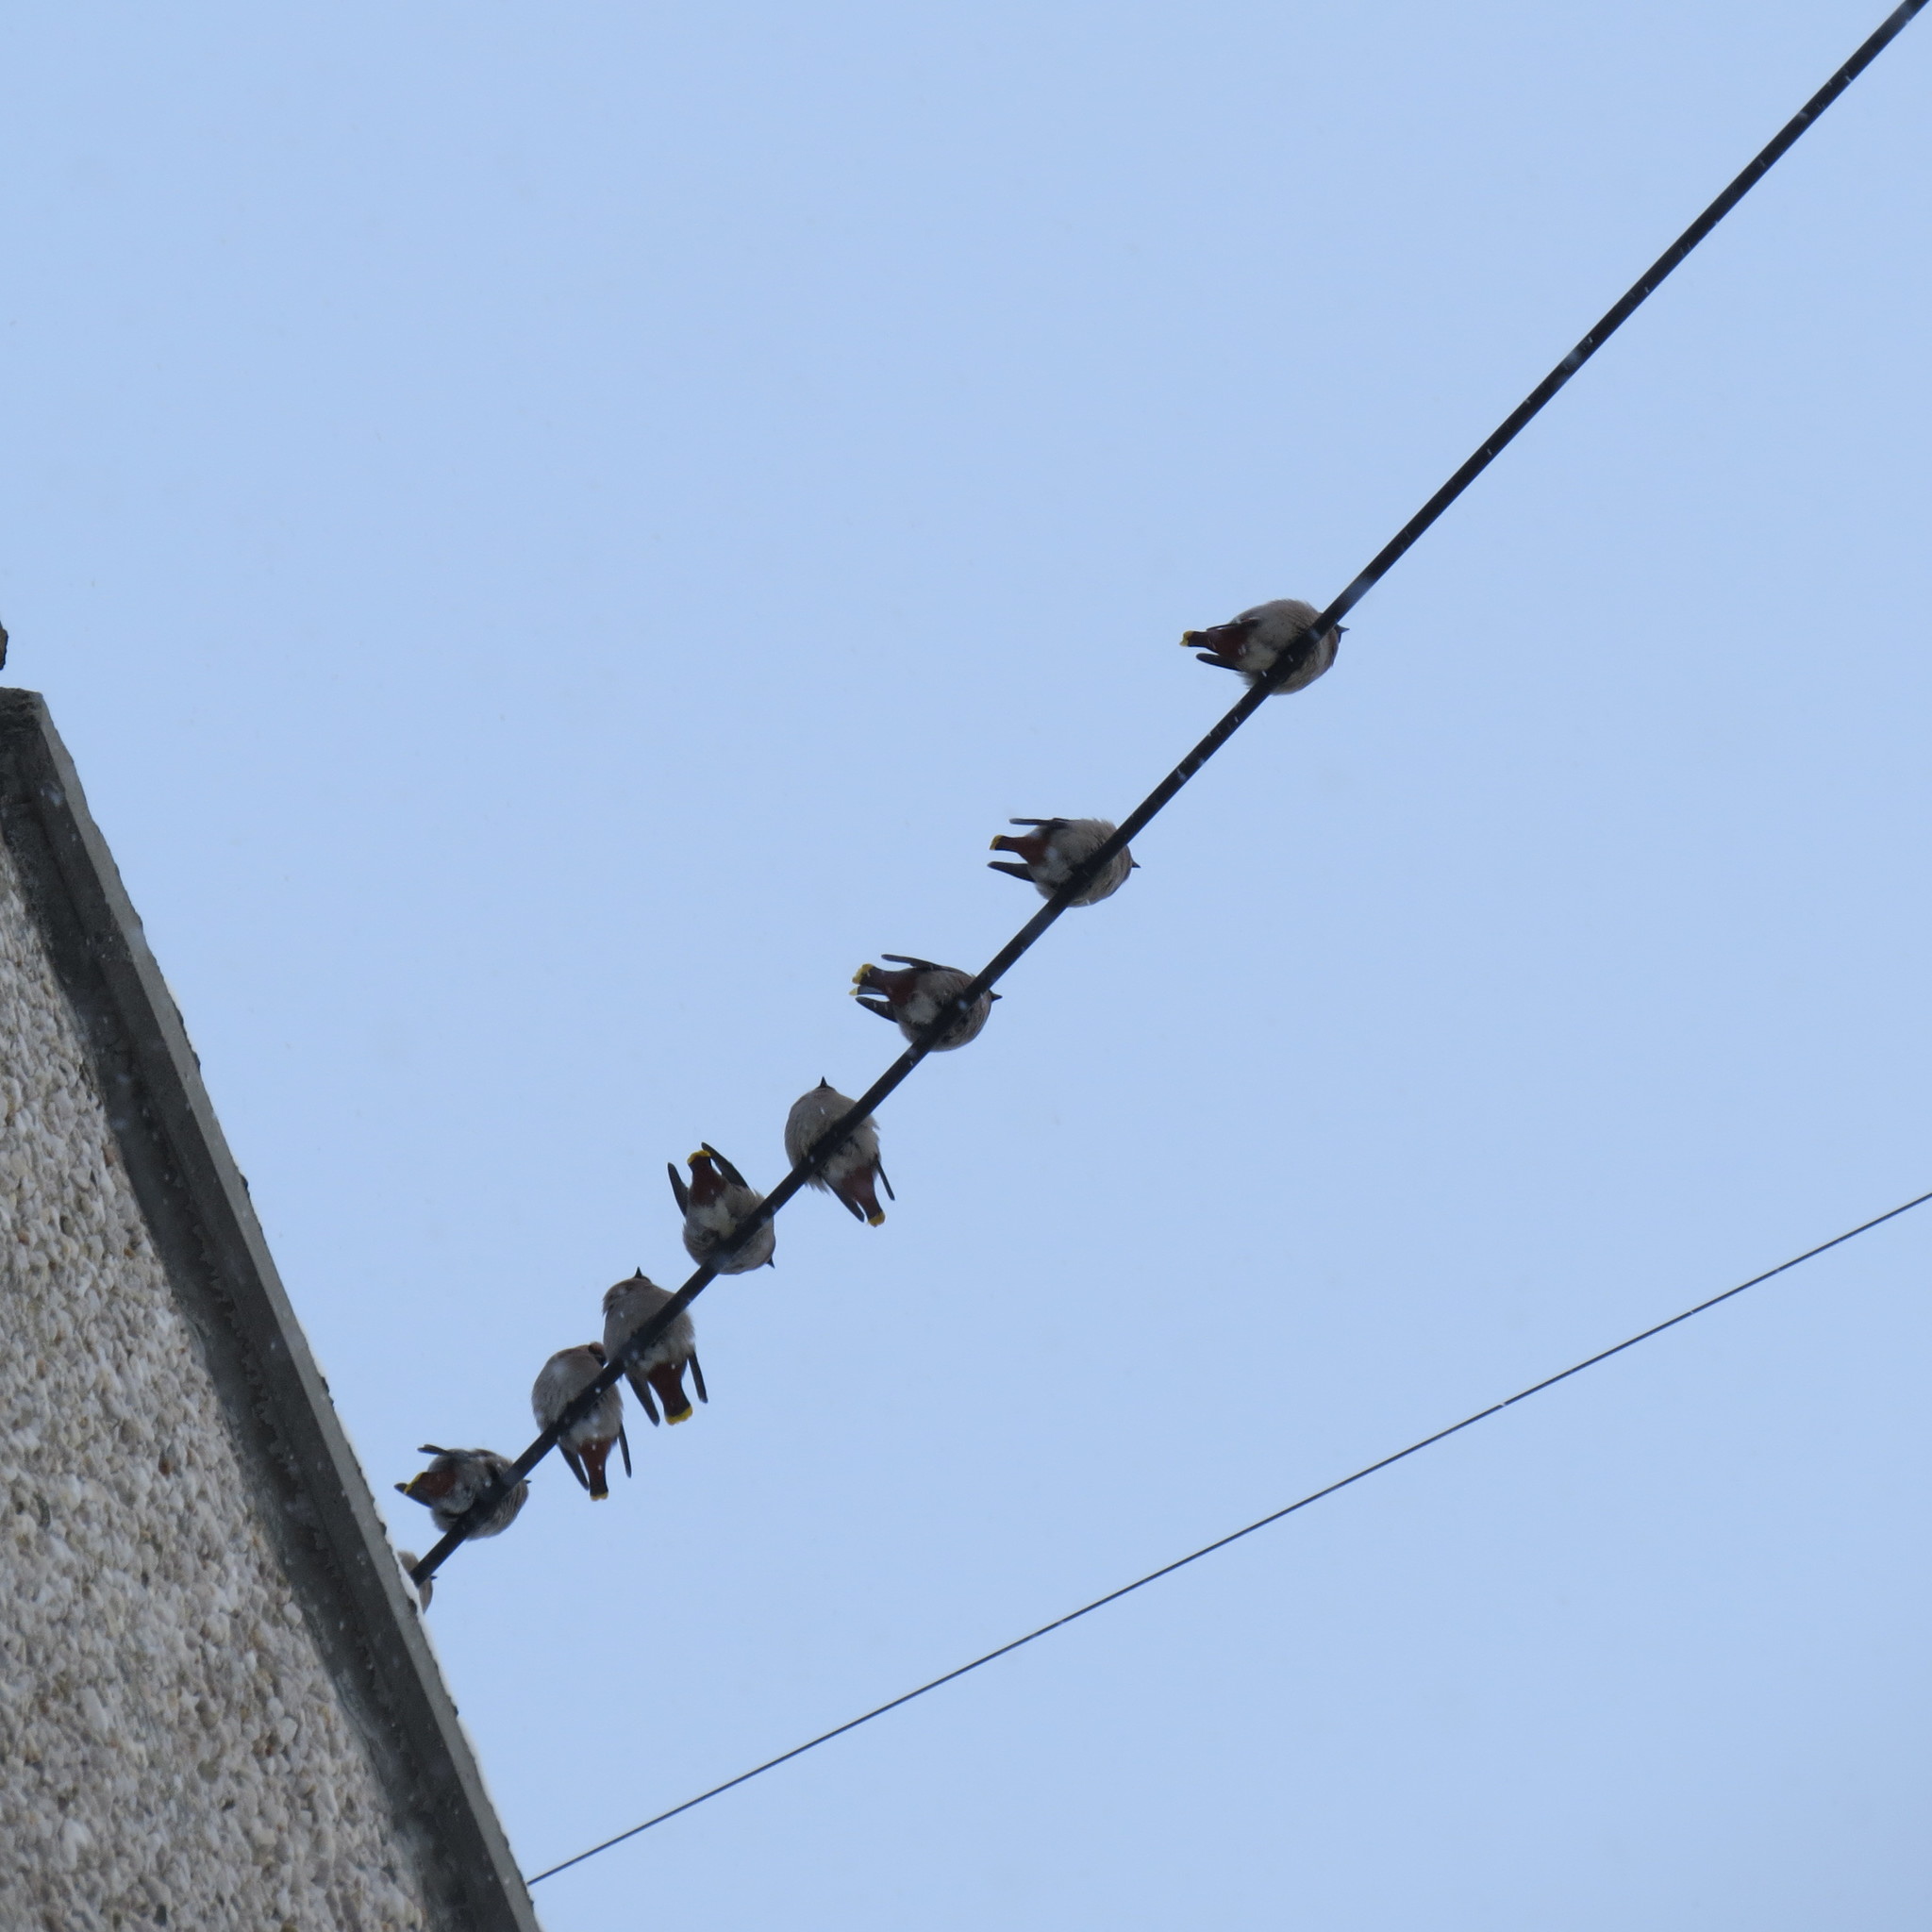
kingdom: Animalia
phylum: Chordata
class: Aves
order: Passeriformes
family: Bombycillidae
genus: Bombycilla
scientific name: Bombycilla garrulus
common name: Bohemian waxwing
